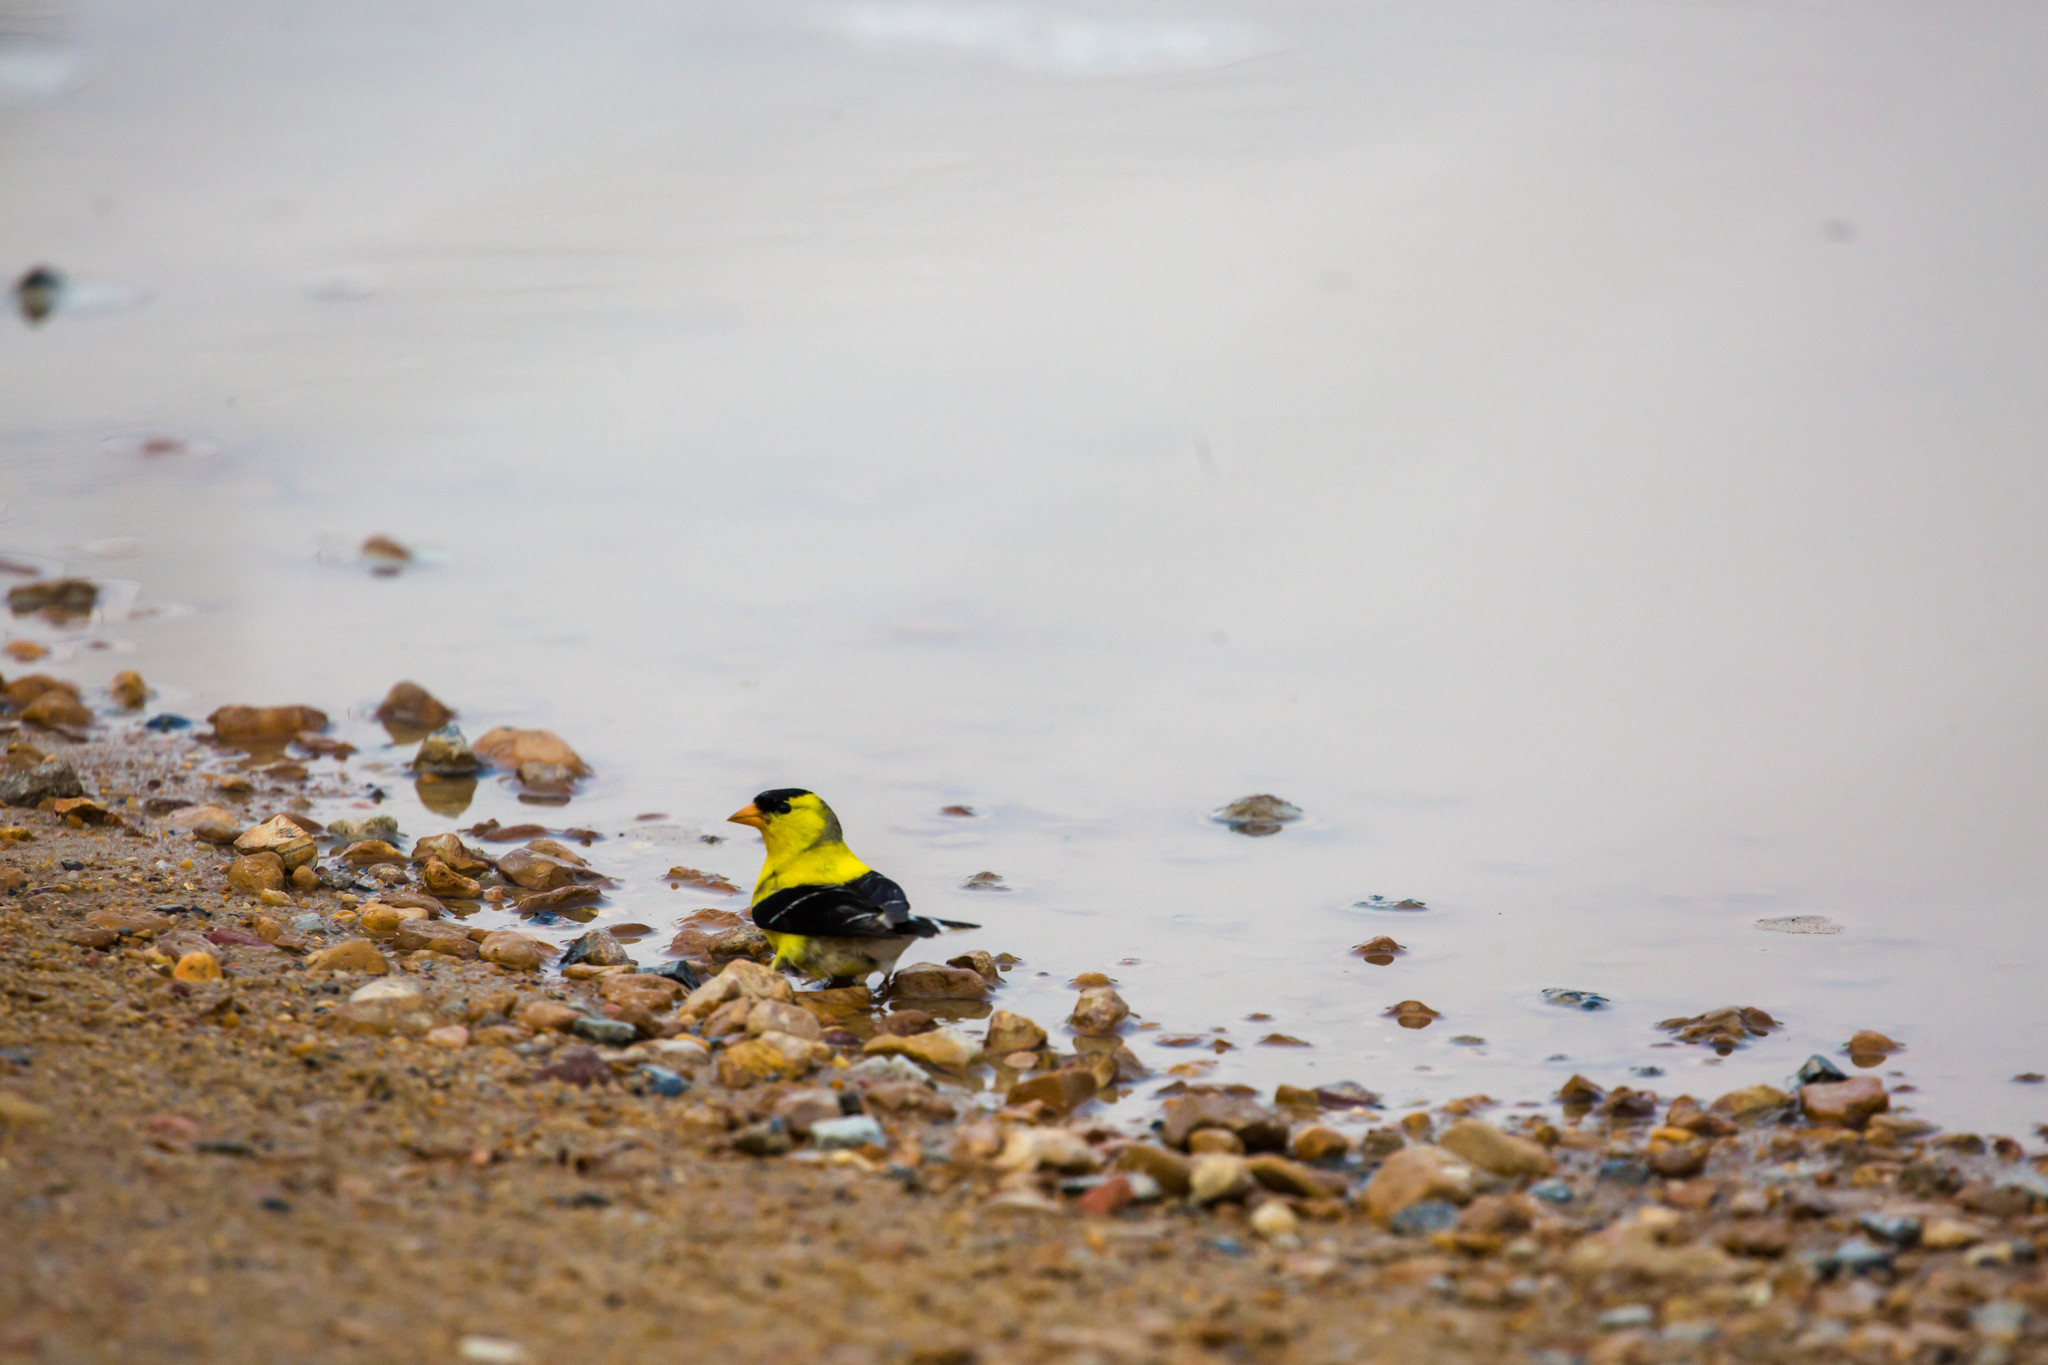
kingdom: Animalia
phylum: Chordata
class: Aves
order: Passeriformes
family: Fringillidae
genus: Spinus
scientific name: Spinus tristis
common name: American goldfinch
